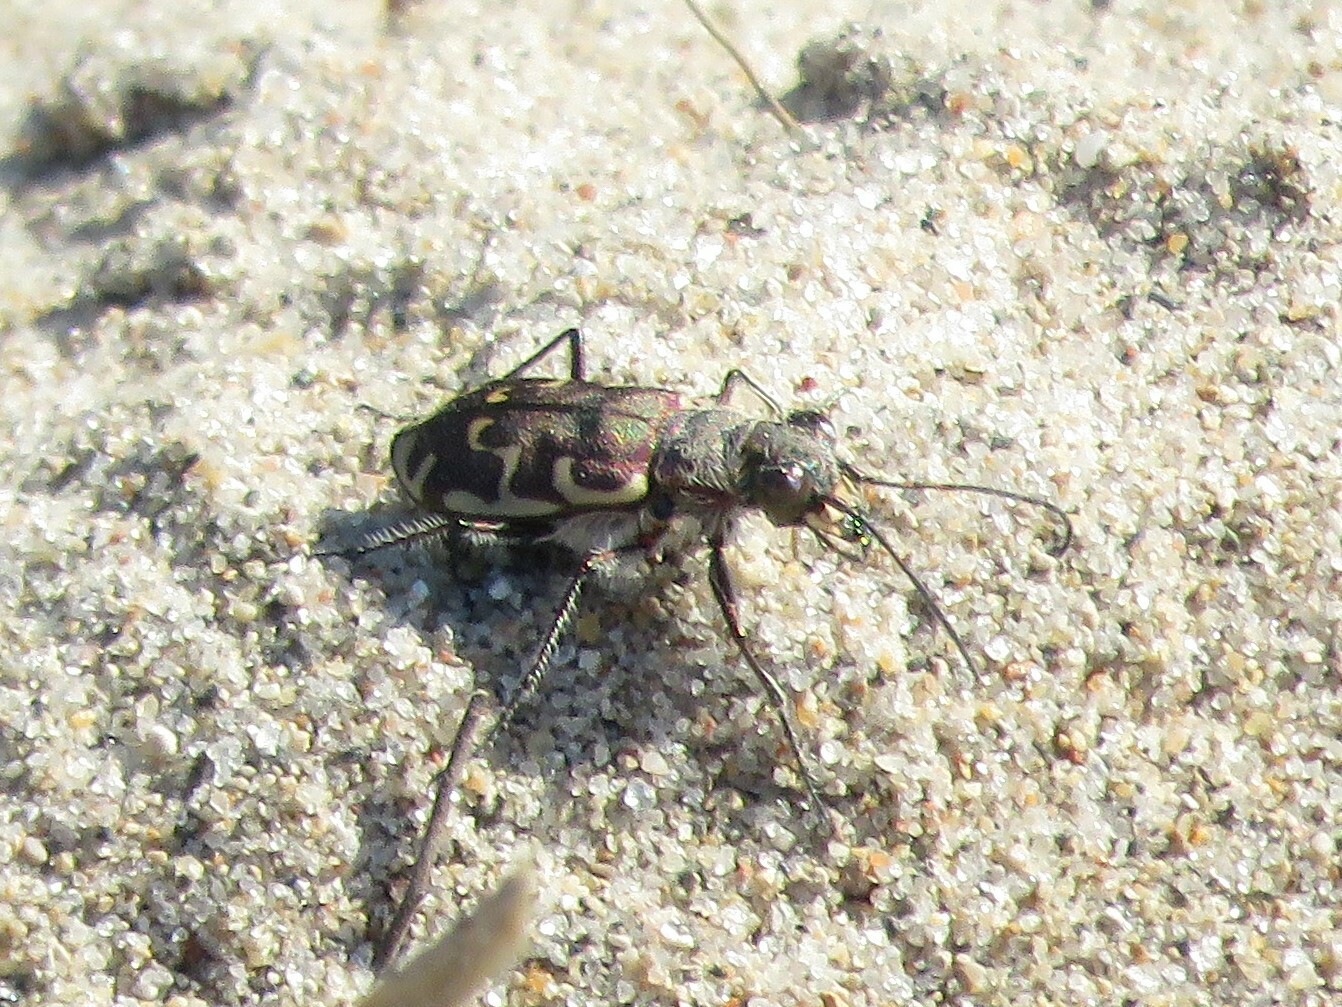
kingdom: Animalia
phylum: Arthropoda
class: Insecta
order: Coleoptera
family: Carabidae
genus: Cicindela
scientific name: Cicindela repanda
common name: Bronzed tiger beetle
